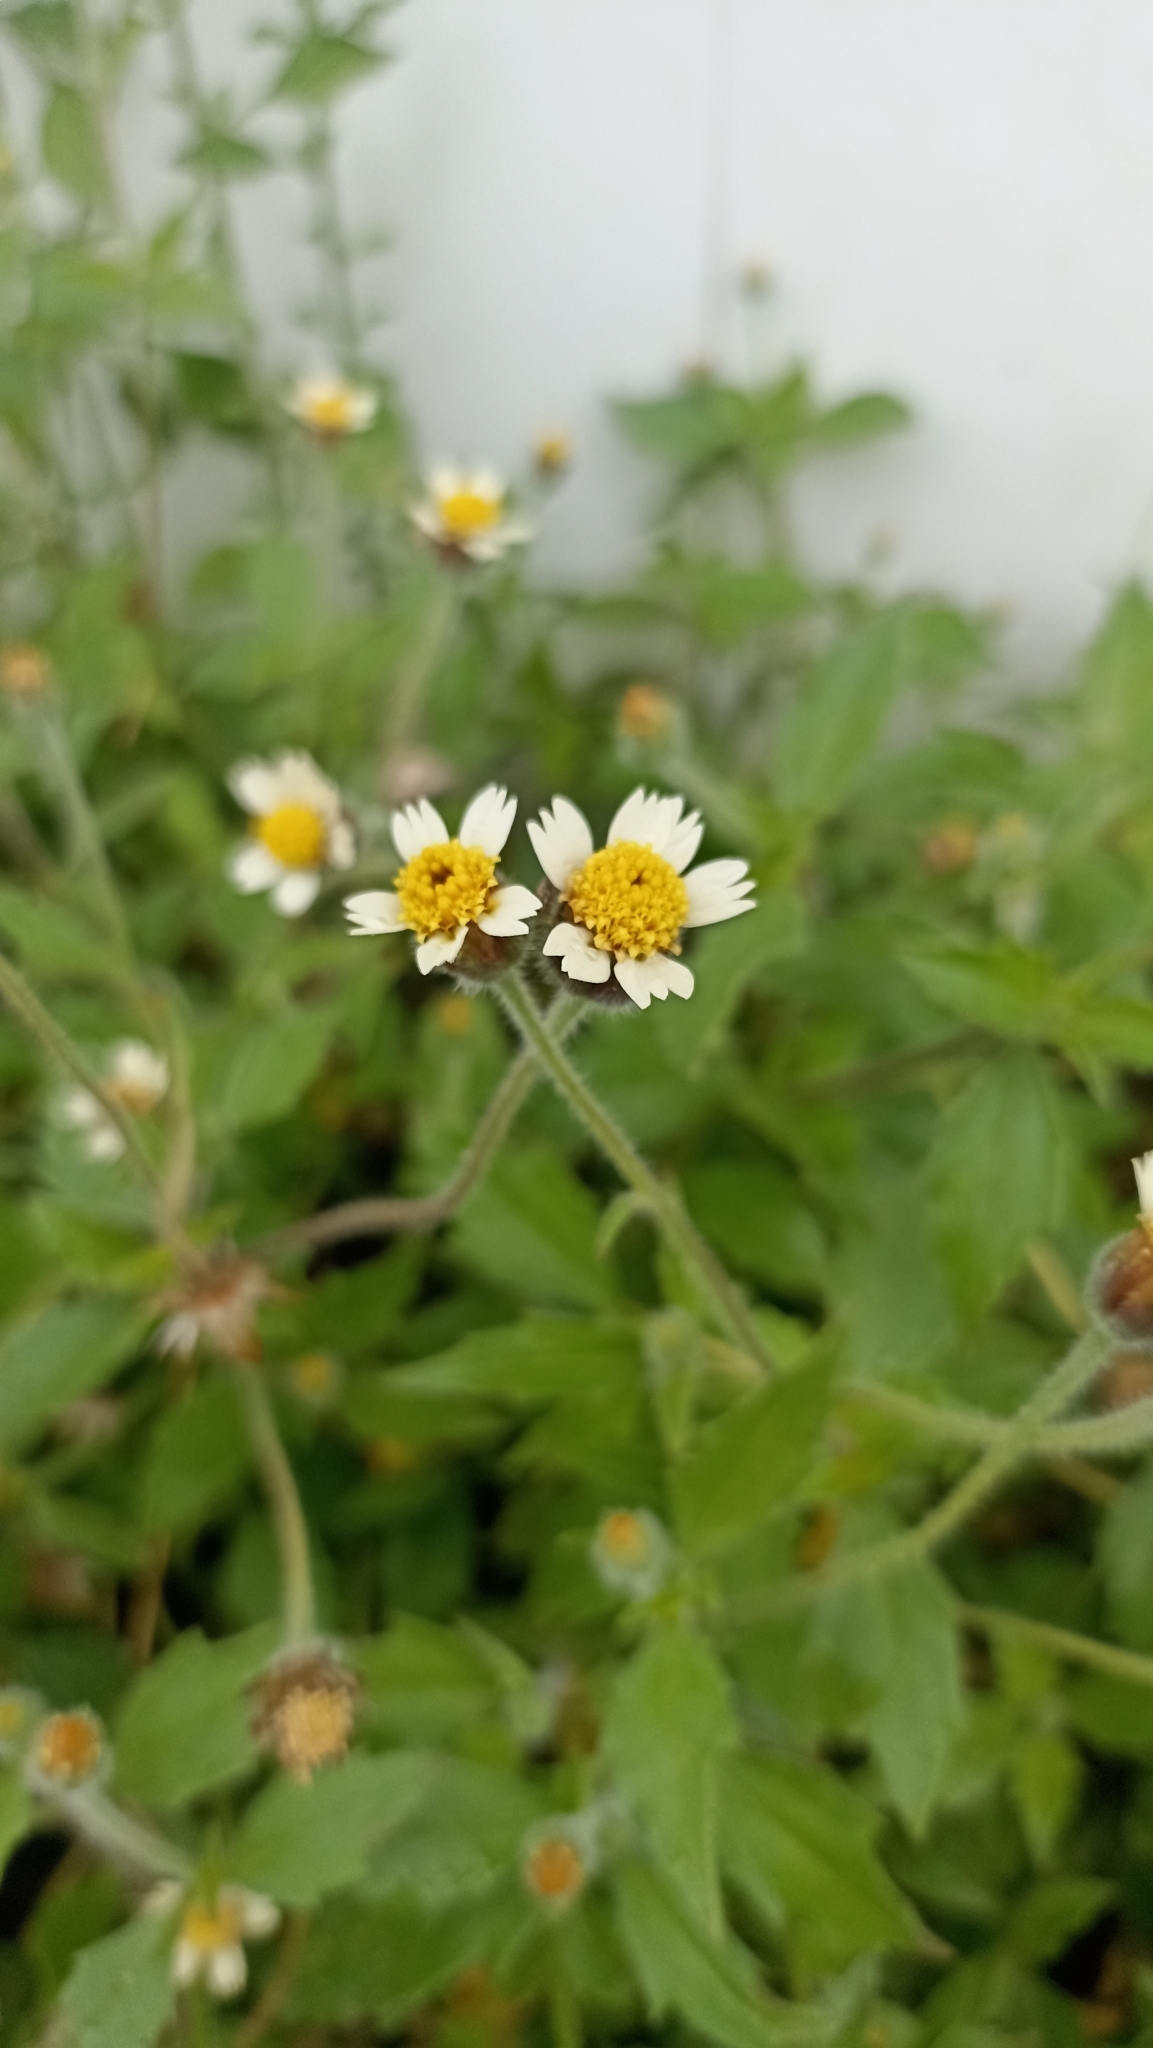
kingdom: Plantae
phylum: Tracheophyta
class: Magnoliopsida
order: Asterales
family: Asteraceae
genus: Tridax
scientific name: Tridax procumbens
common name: Coatbuttons
